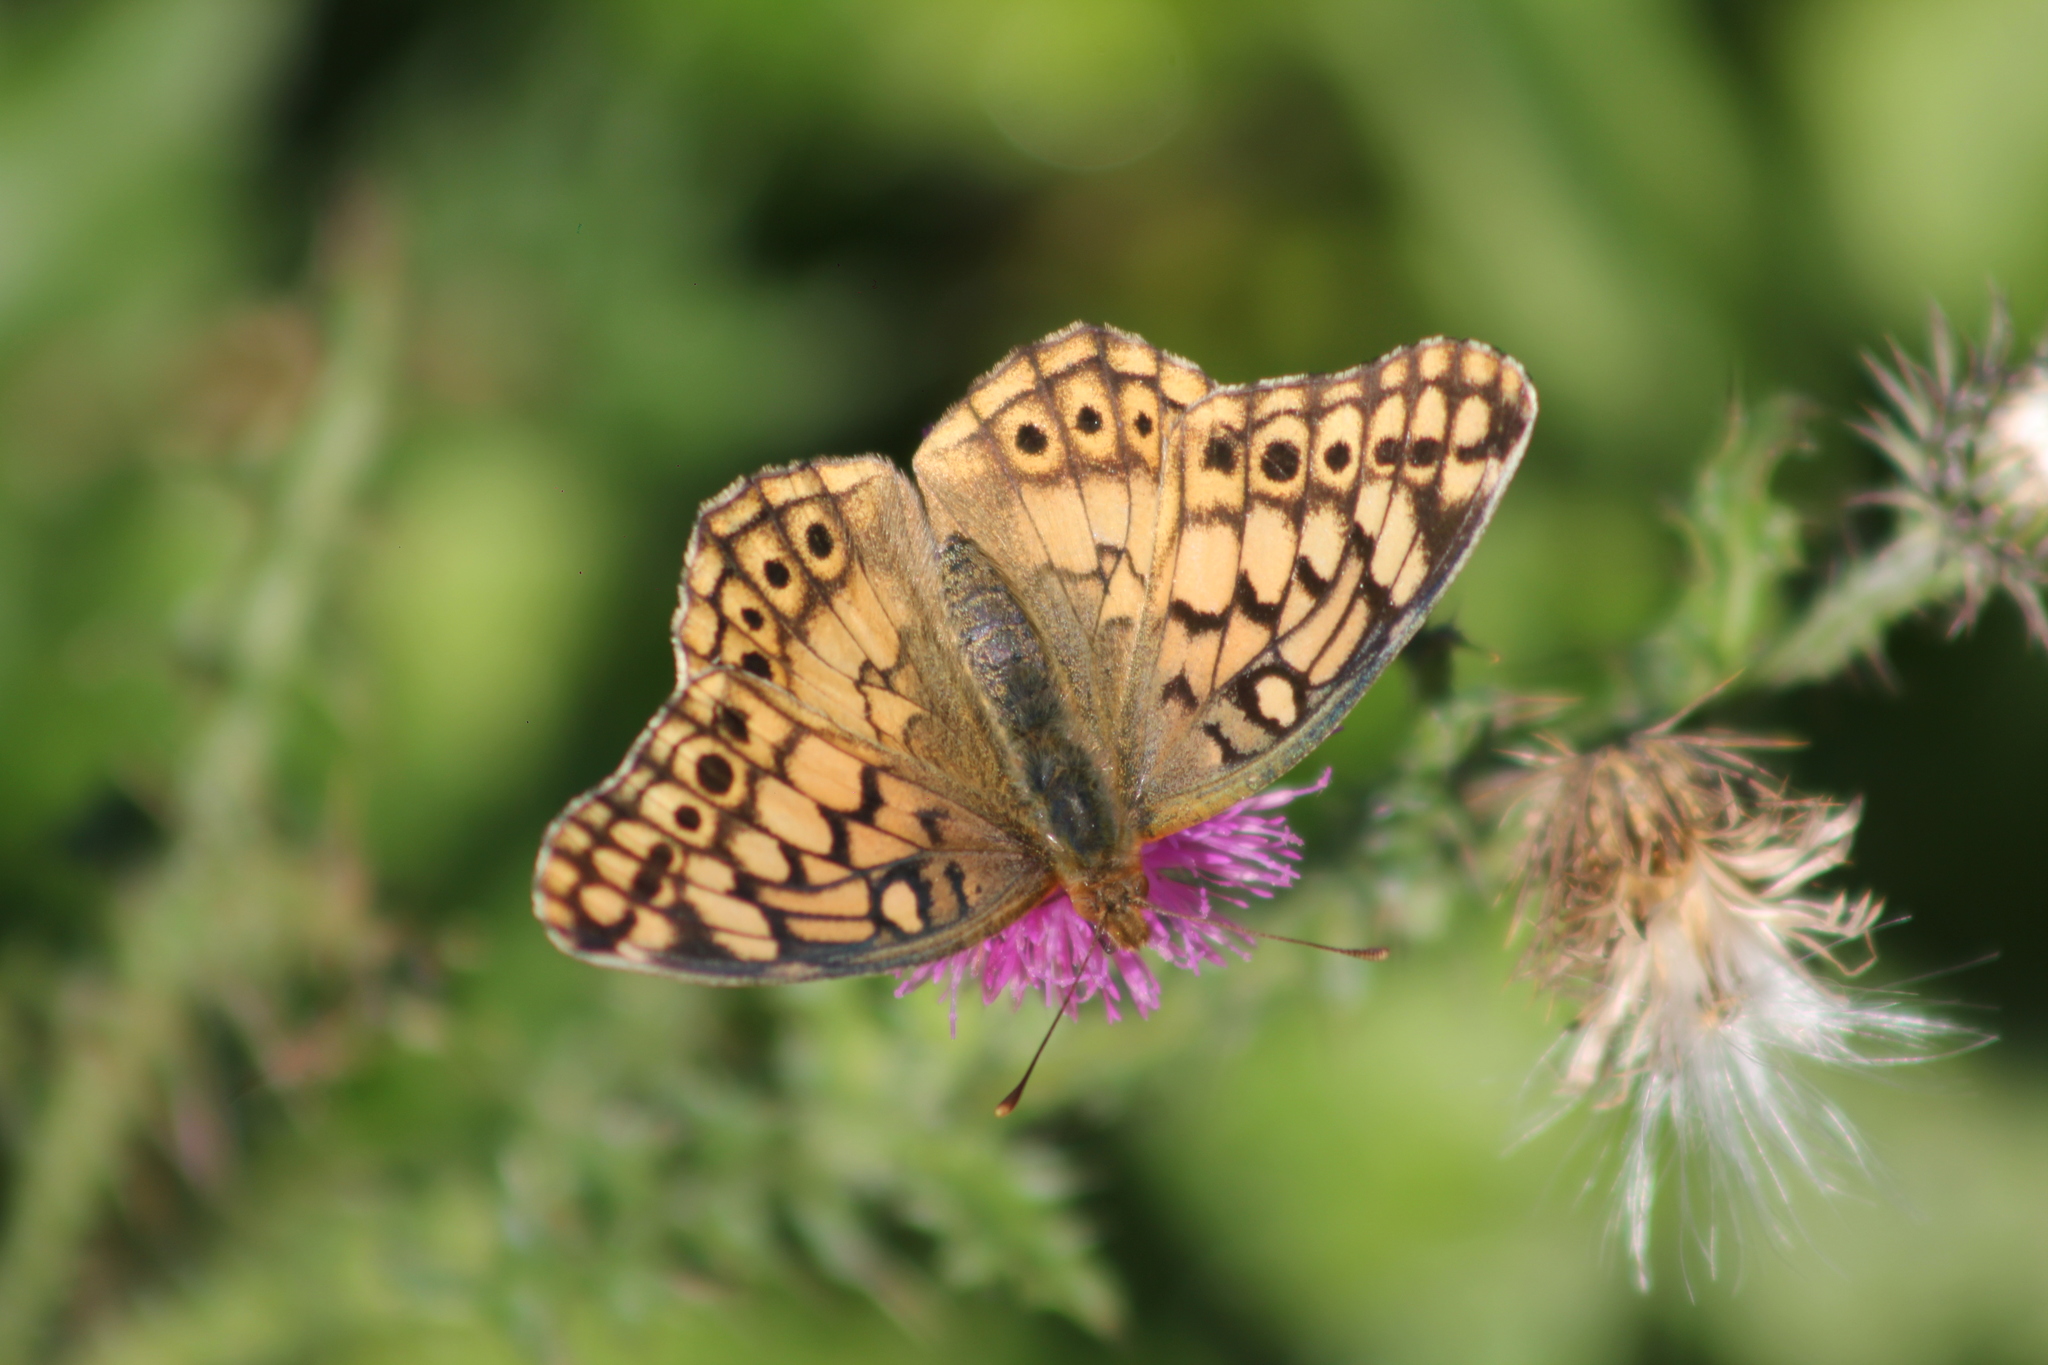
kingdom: Animalia
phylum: Arthropoda
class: Insecta
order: Lepidoptera
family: Nymphalidae
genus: Euptoieta
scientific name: Euptoieta hortensia
